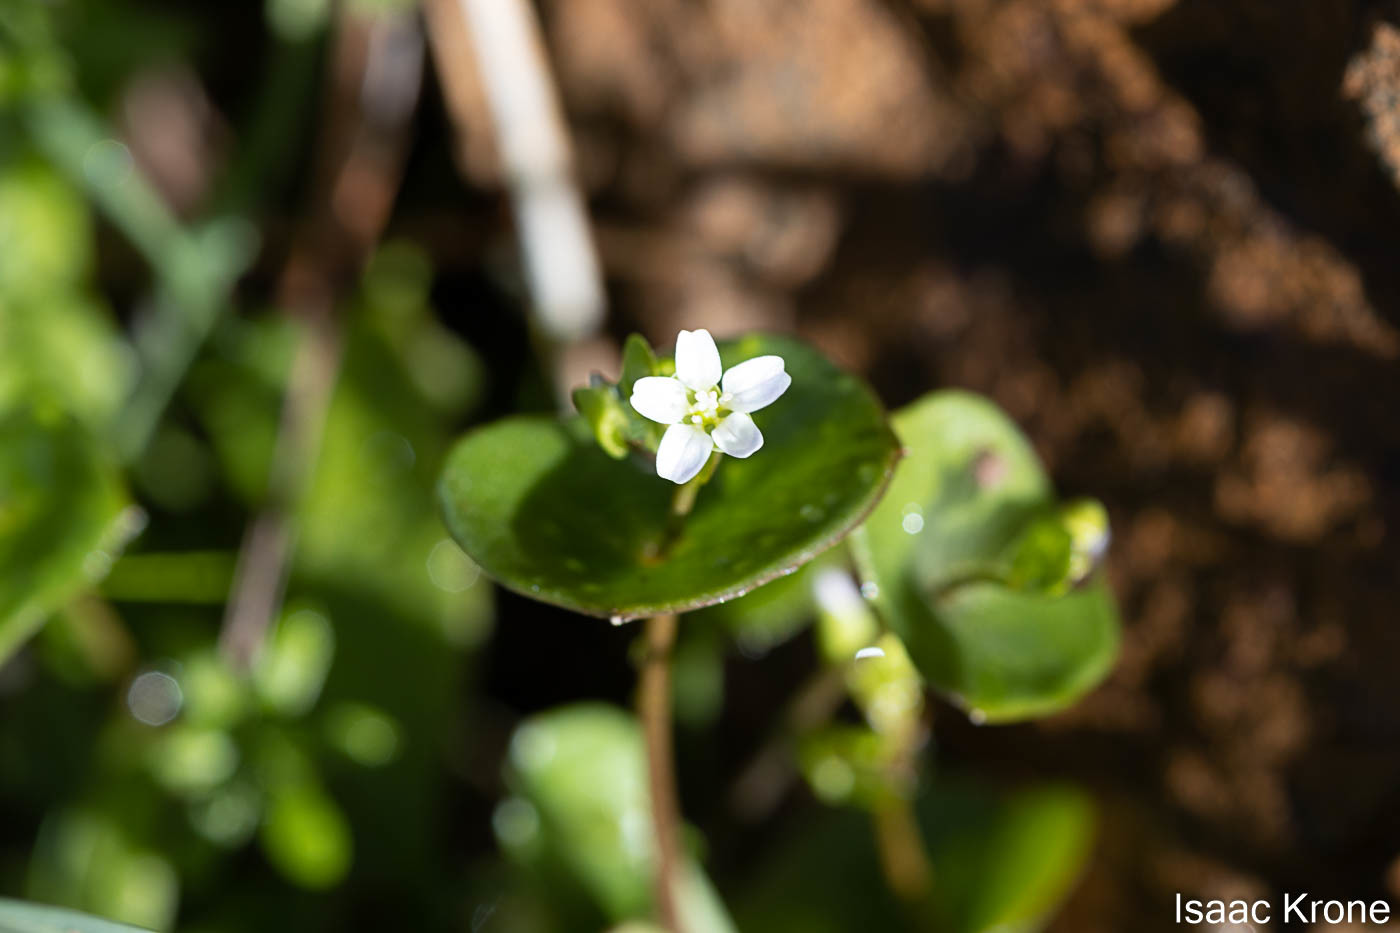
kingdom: Plantae
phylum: Tracheophyta
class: Magnoliopsida
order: Caryophyllales
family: Montiaceae
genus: Claytonia
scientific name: Claytonia perfoliata
